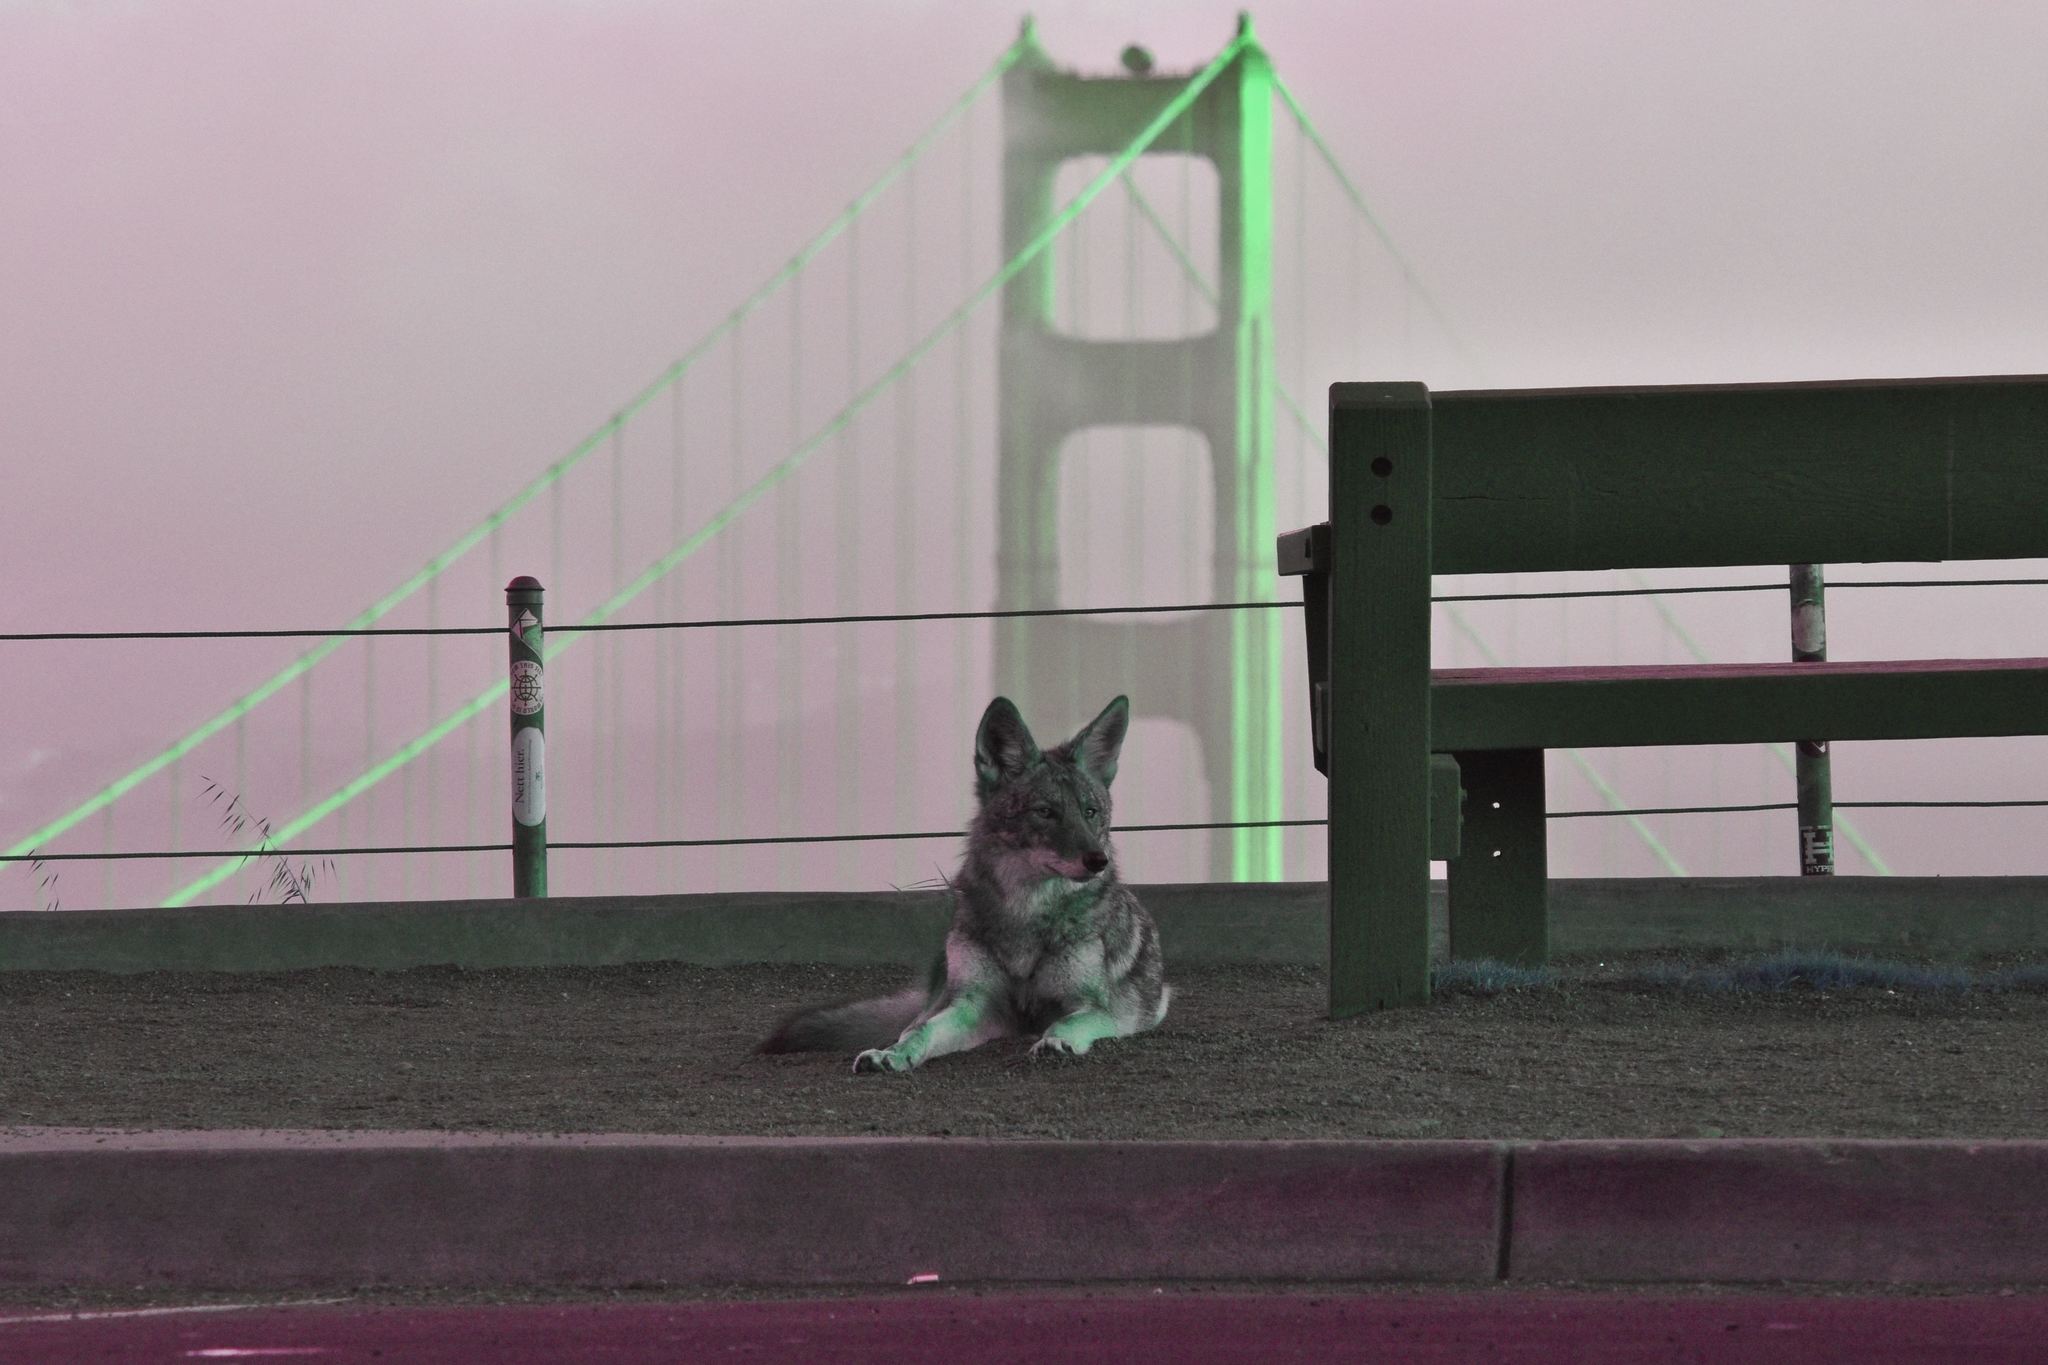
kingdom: Animalia
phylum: Chordata
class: Mammalia
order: Carnivora
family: Canidae
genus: Canis
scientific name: Canis latrans
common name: Coyote
